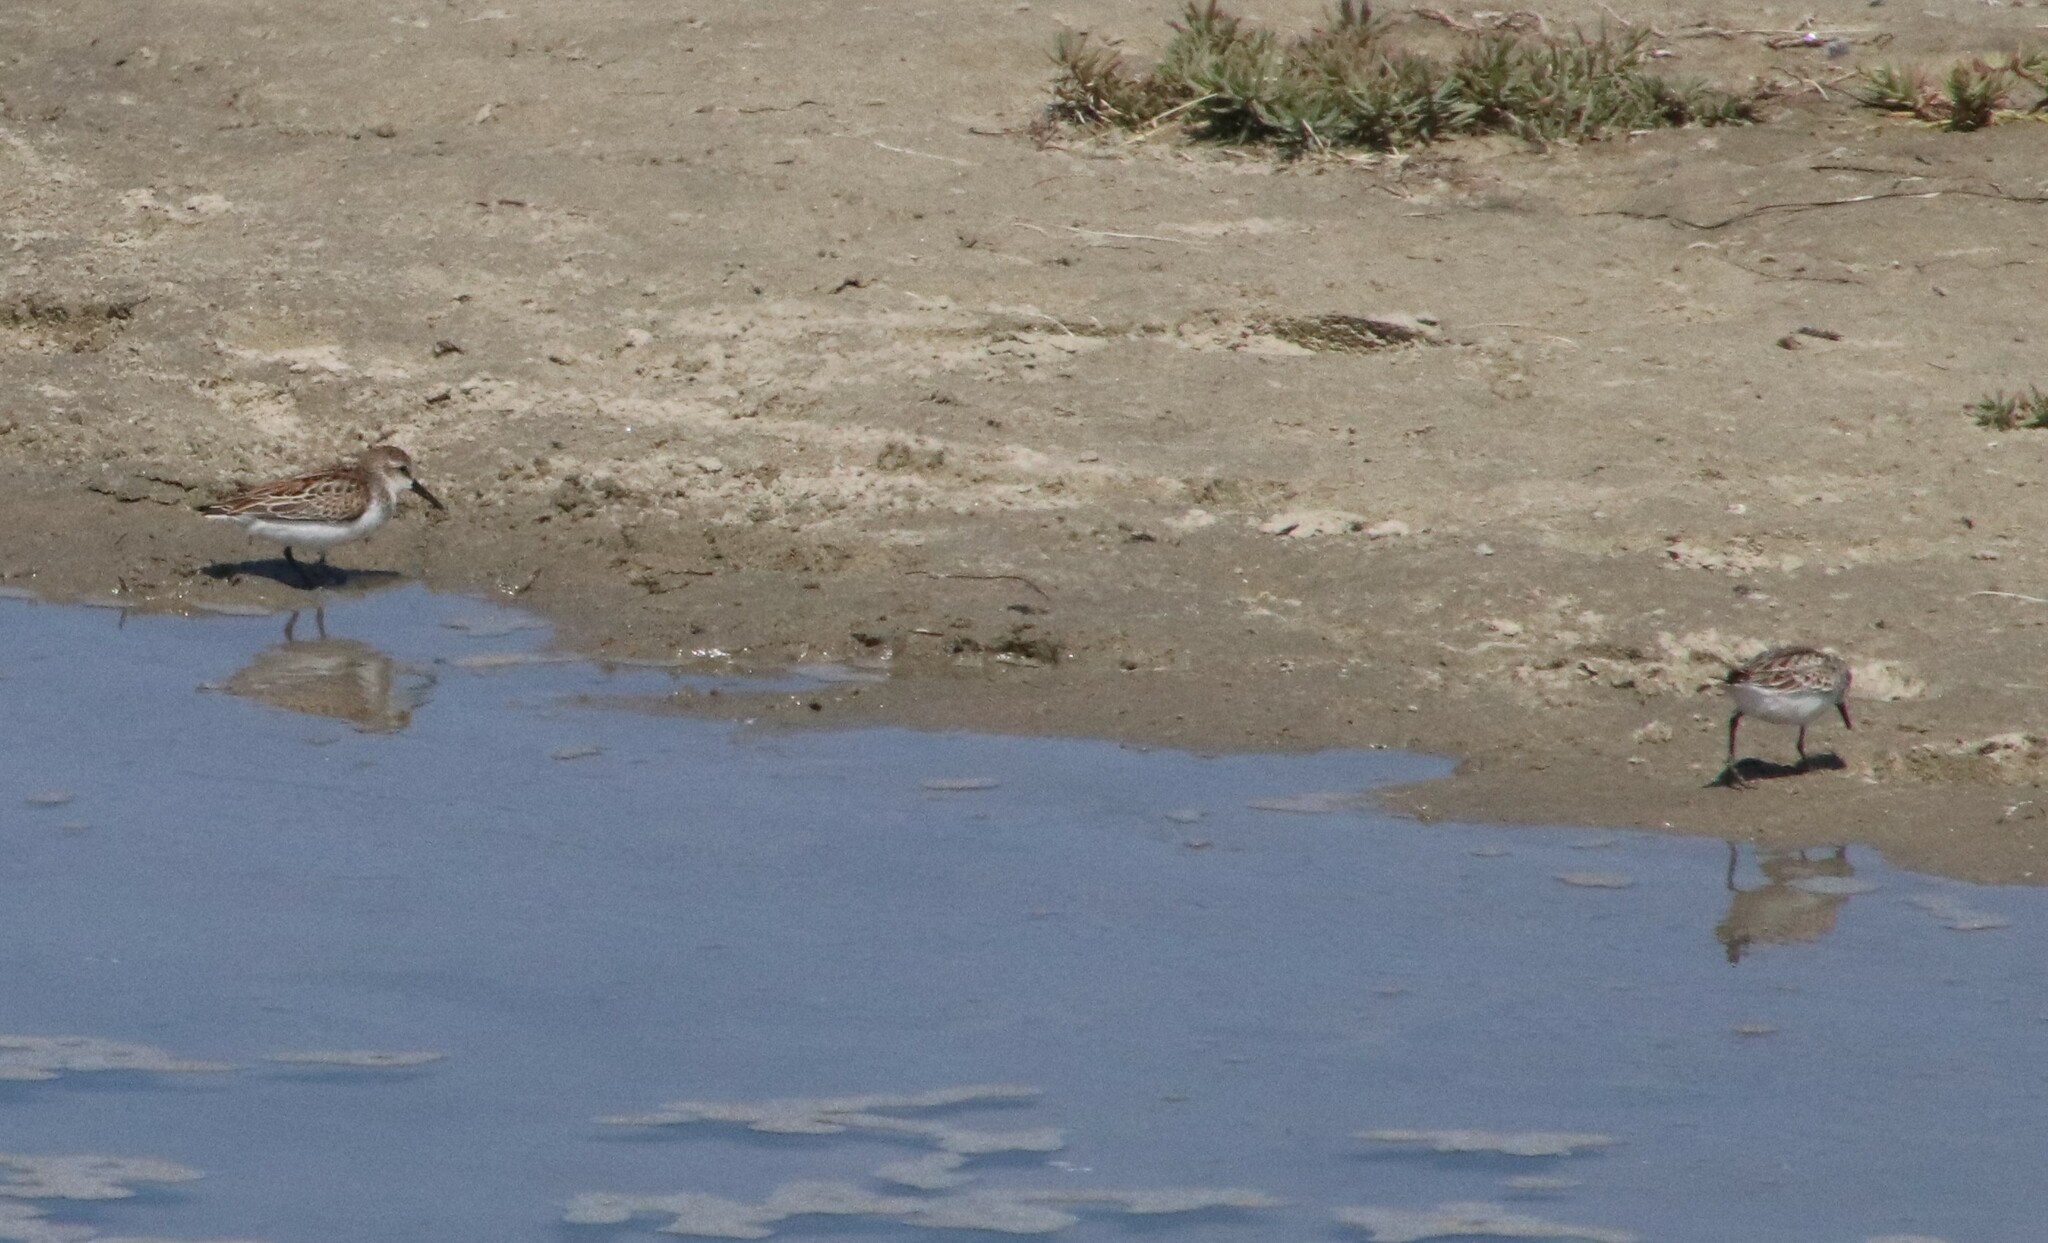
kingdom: Animalia
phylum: Chordata
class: Aves
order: Charadriiformes
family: Scolopacidae
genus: Calidris
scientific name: Calidris mauri
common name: Western sandpiper
